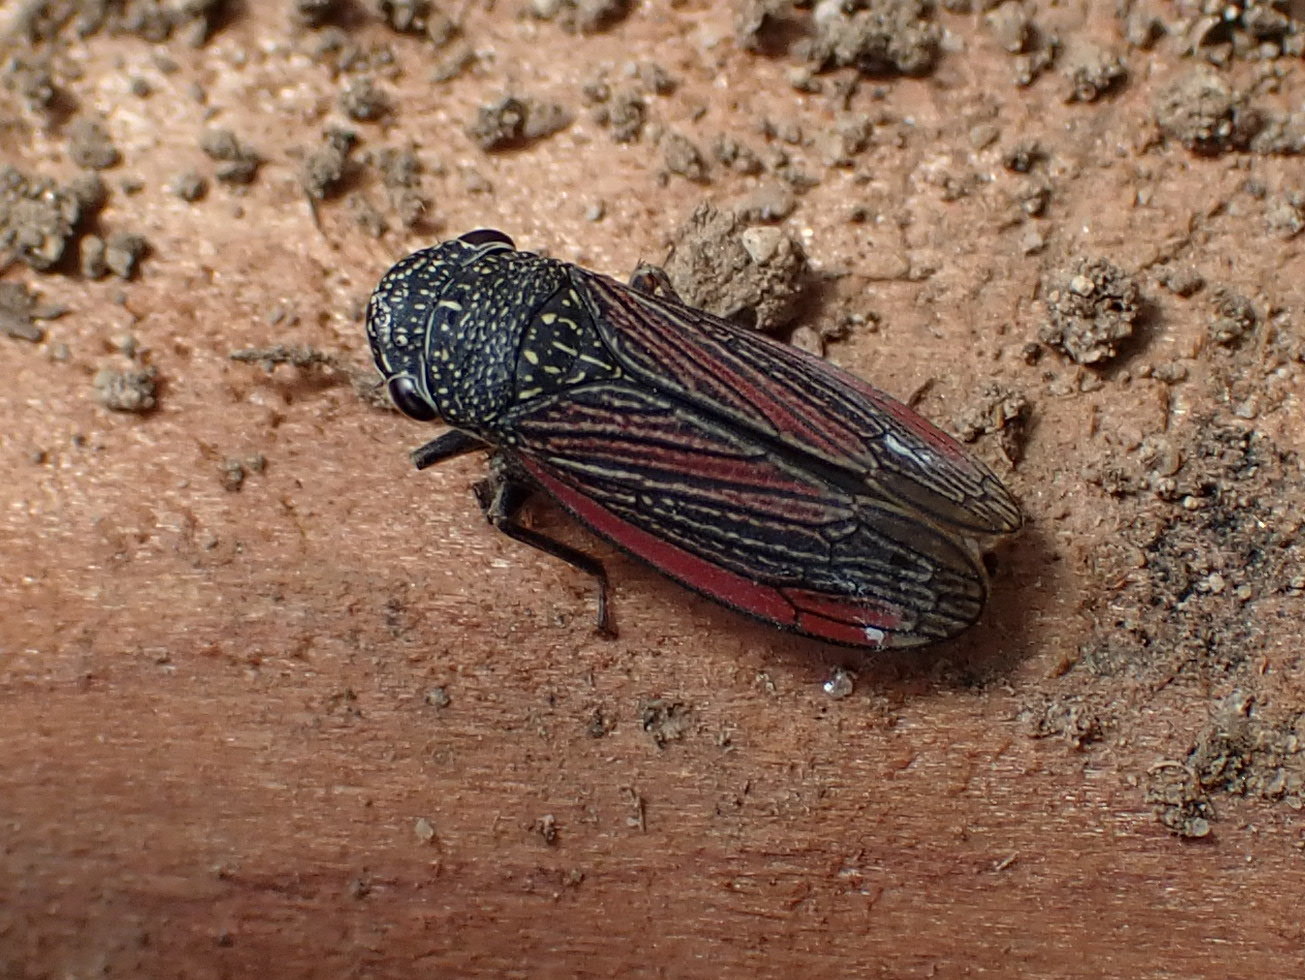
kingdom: Animalia
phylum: Arthropoda
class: Insecta
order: Hemiptera
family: Cicadellidae
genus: Cuerna
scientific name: Cuerna striata
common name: Striped leafhopper
